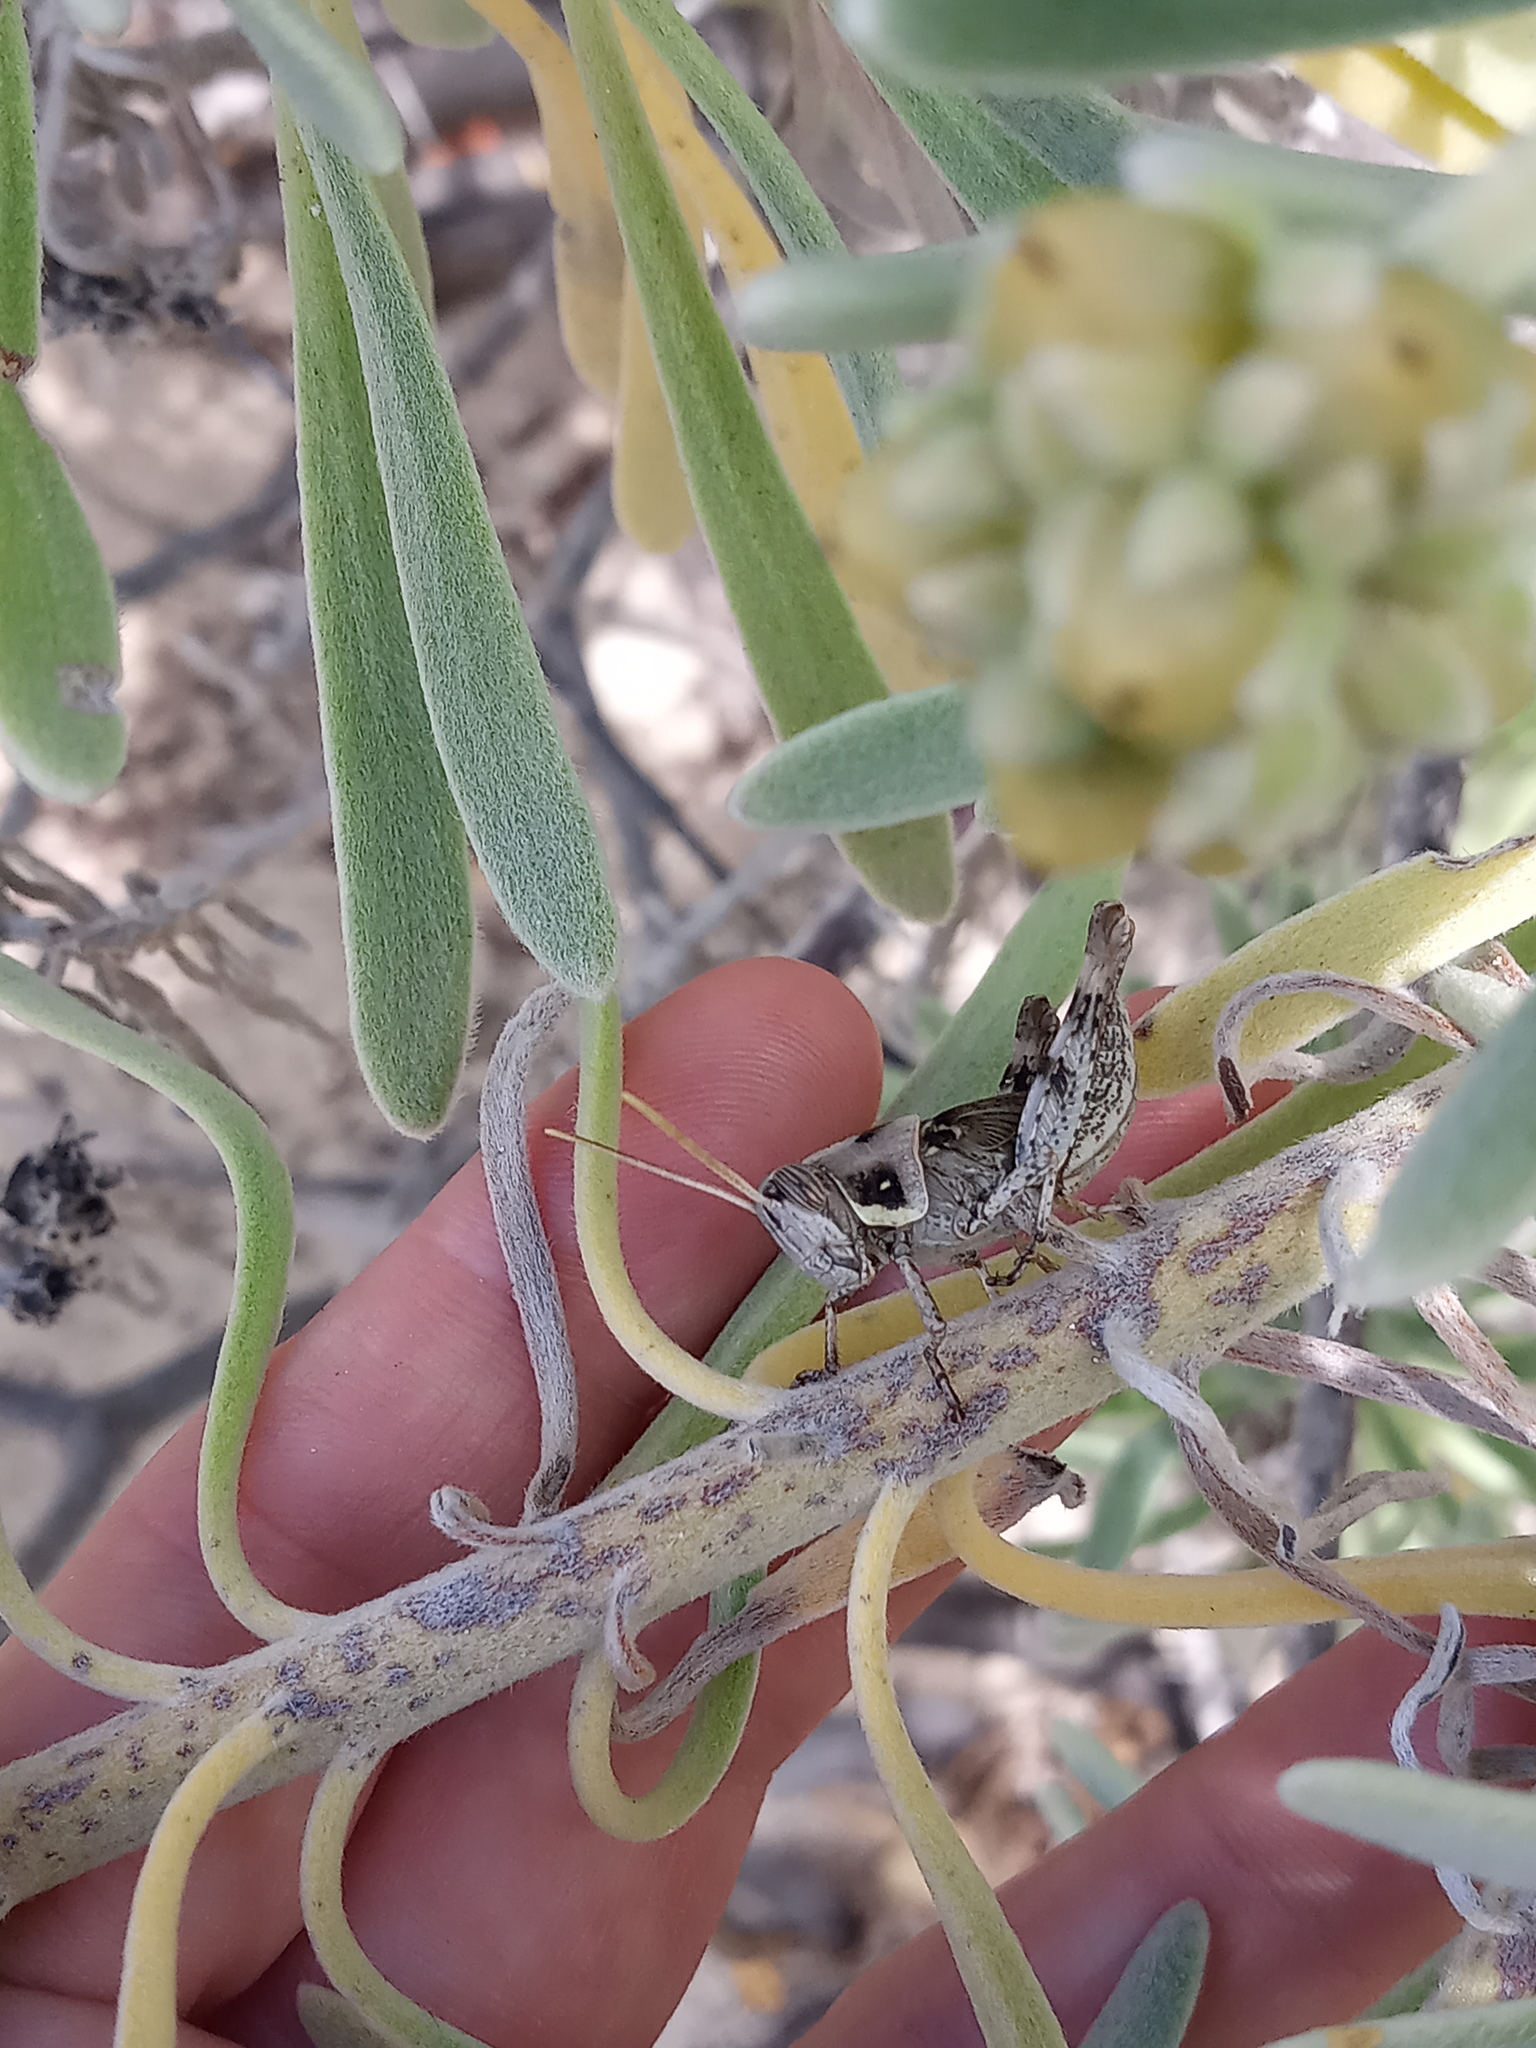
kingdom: Animalia
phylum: Arthropoda
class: Insecta
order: Orthoptera
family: Acrididae
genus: Schistocerca
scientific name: Schistocerca nitens
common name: Vagrant grasshopper
